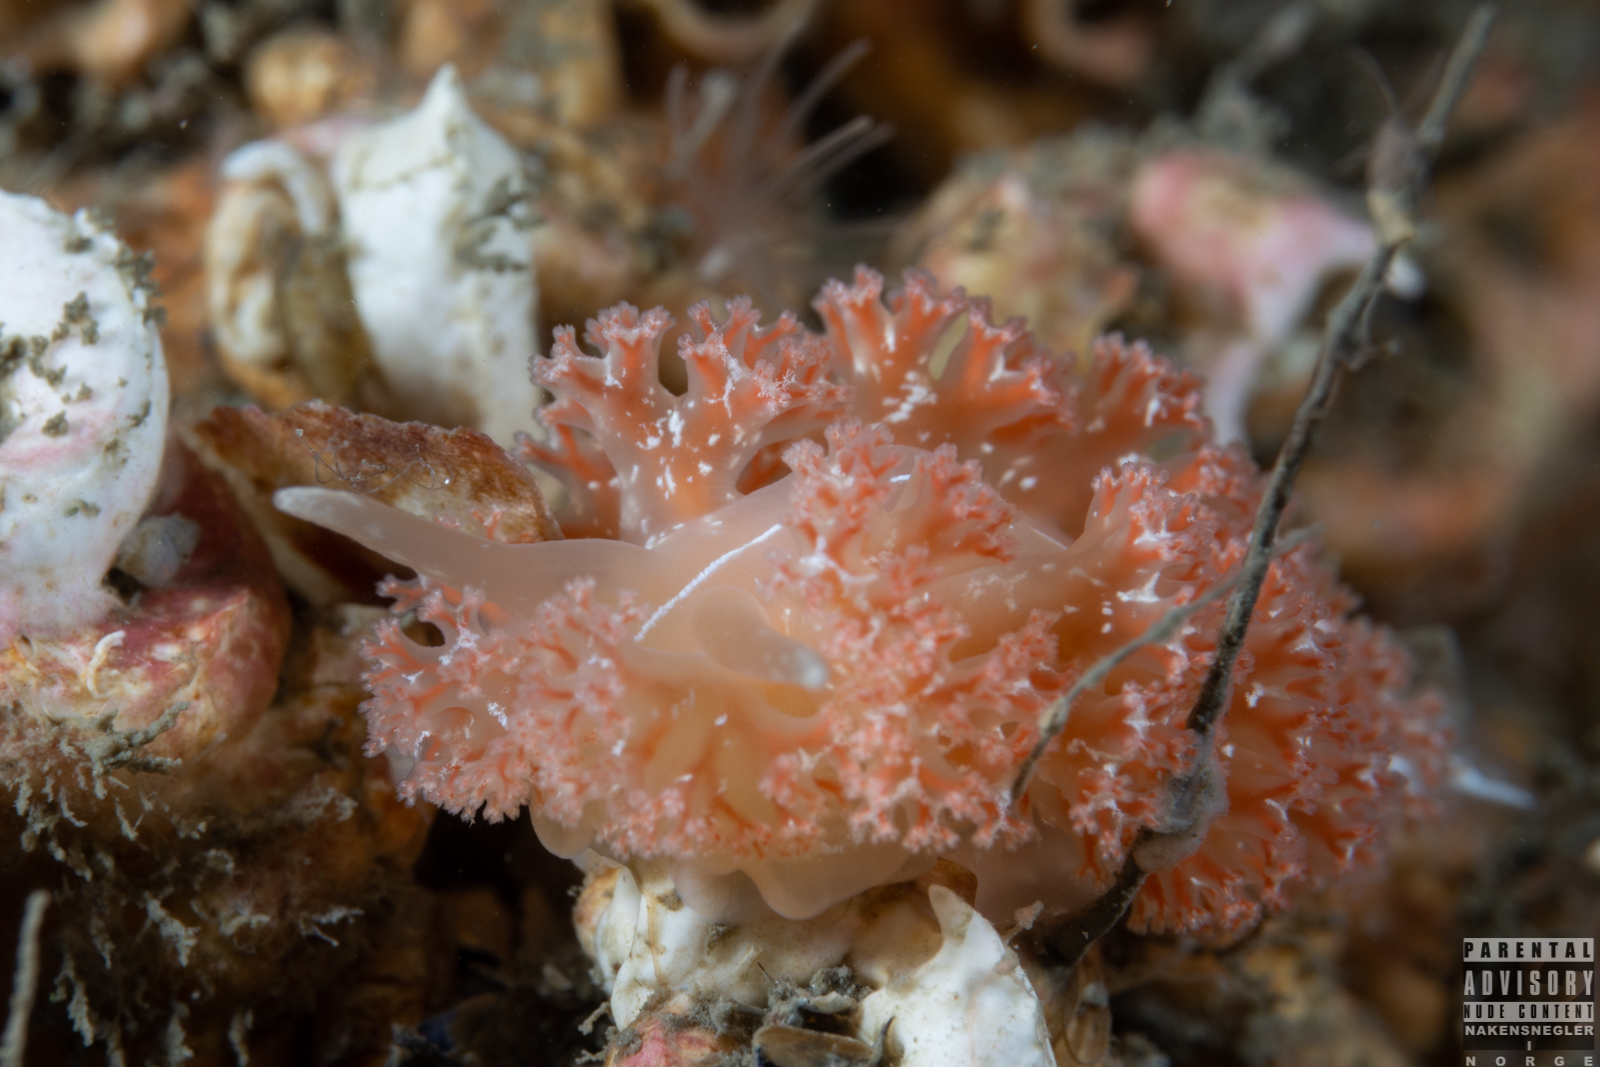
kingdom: Animalia
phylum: Mollusca
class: Gastropoda
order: Nudibranchia
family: Heroidae
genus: Hero
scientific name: Hero formosa
